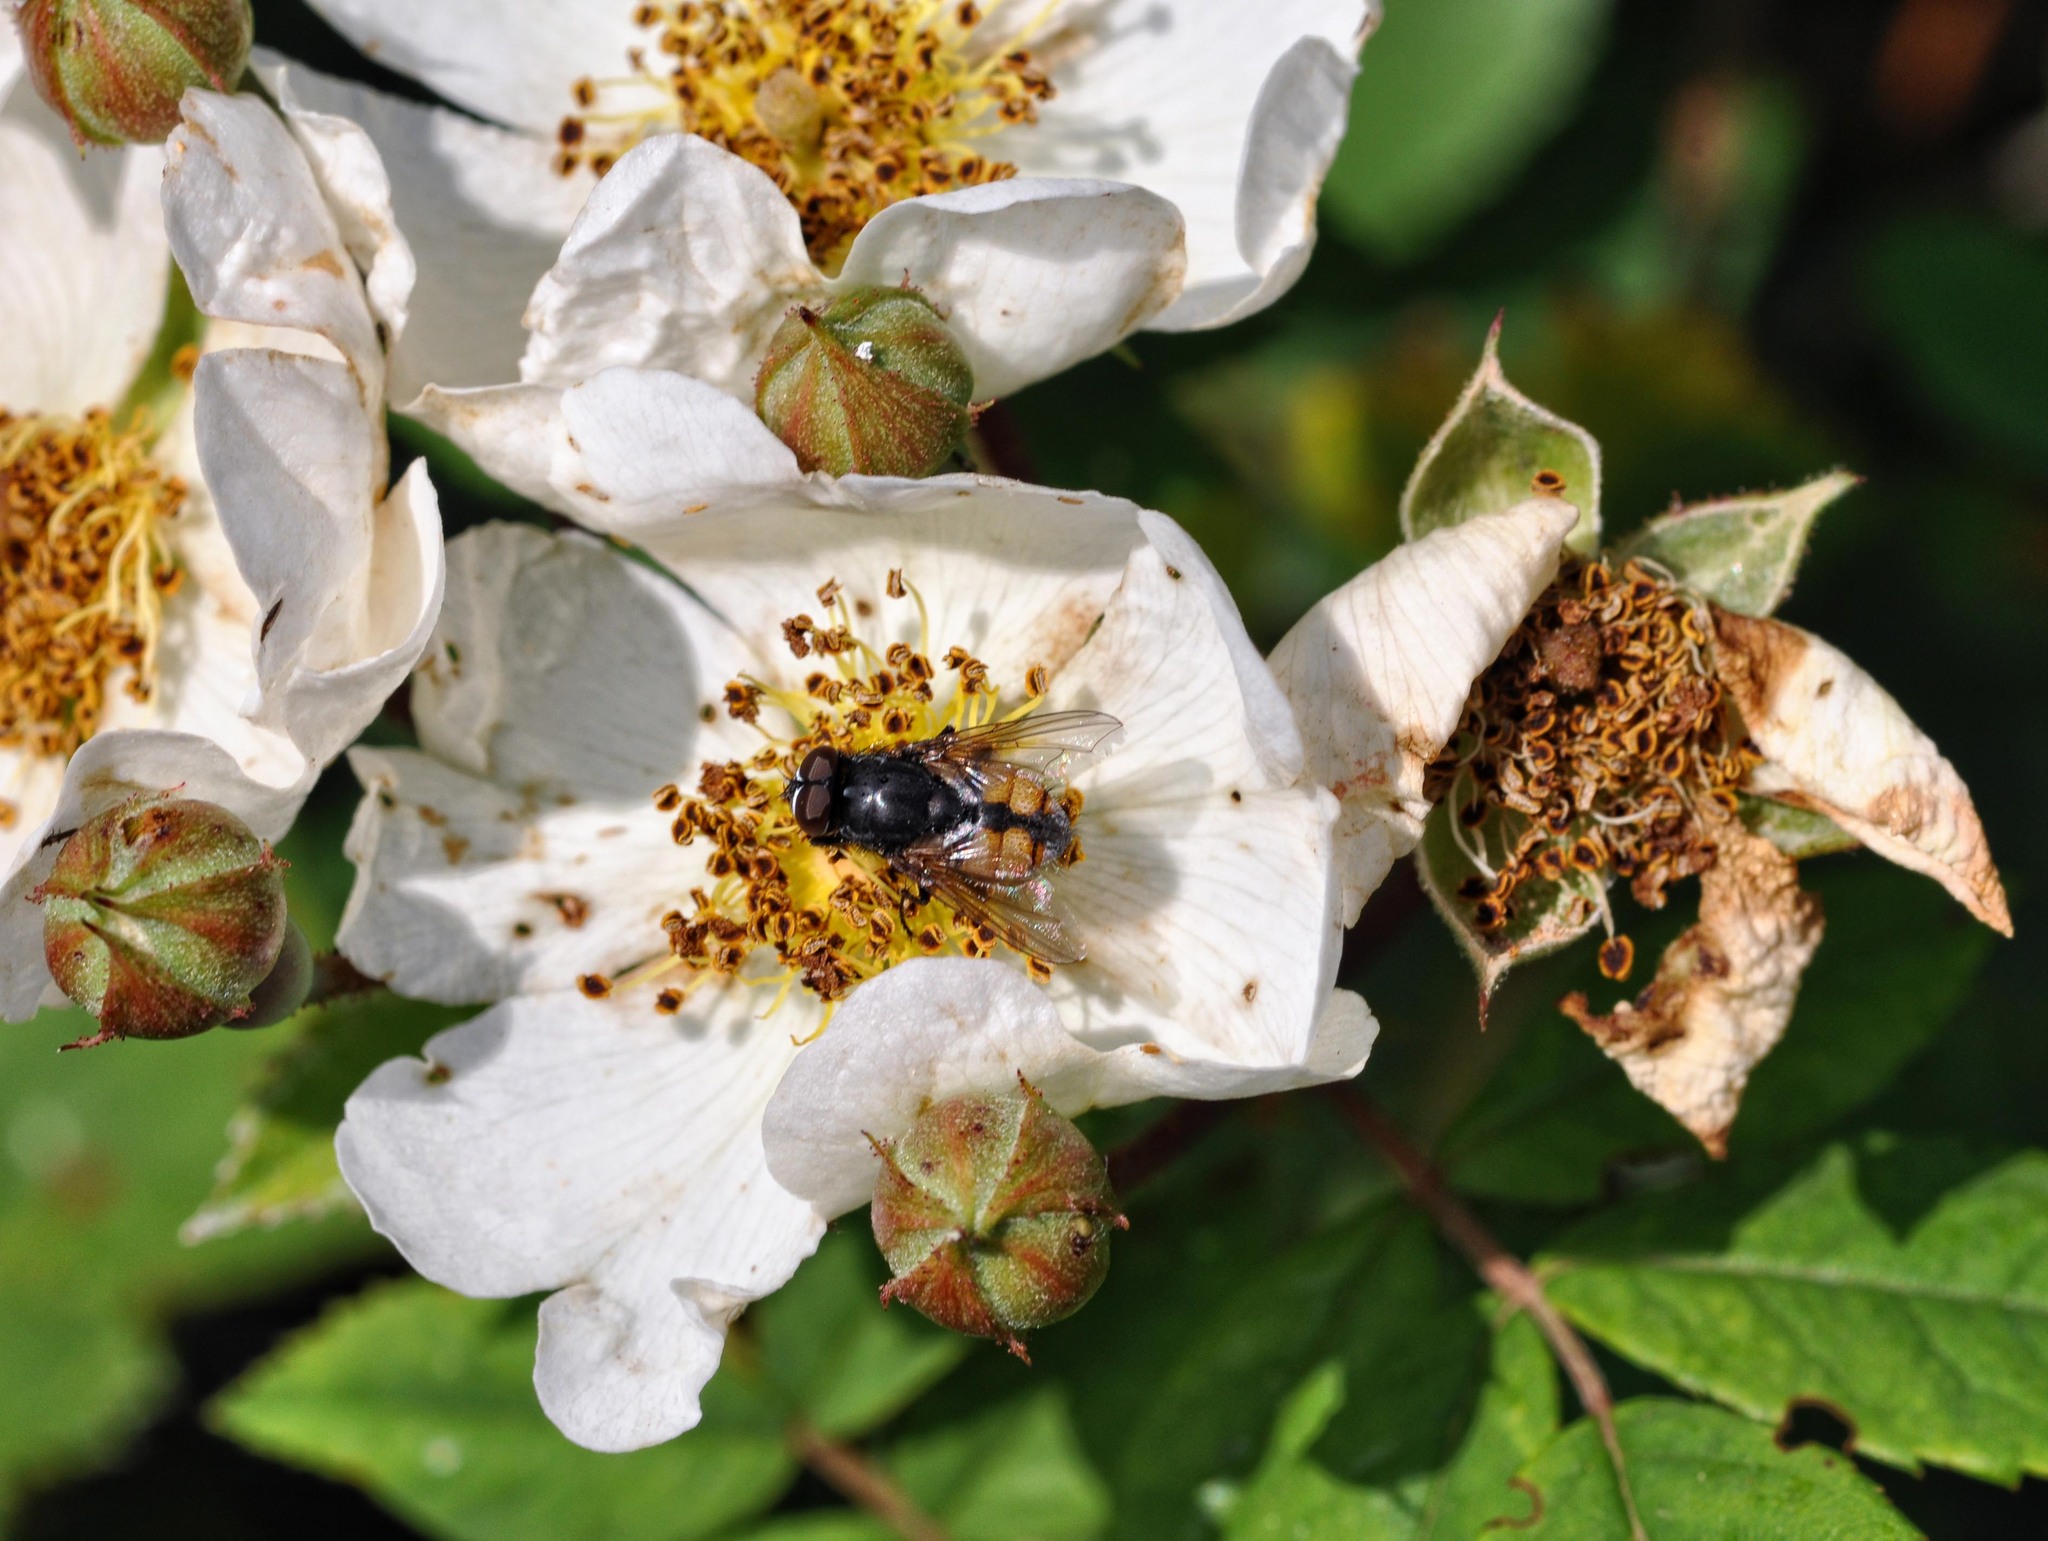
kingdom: Animalia
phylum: Arthropoda
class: Insecta
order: Diptera
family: Muscidae
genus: Musca
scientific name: Musca autumnalis
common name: Face fly
